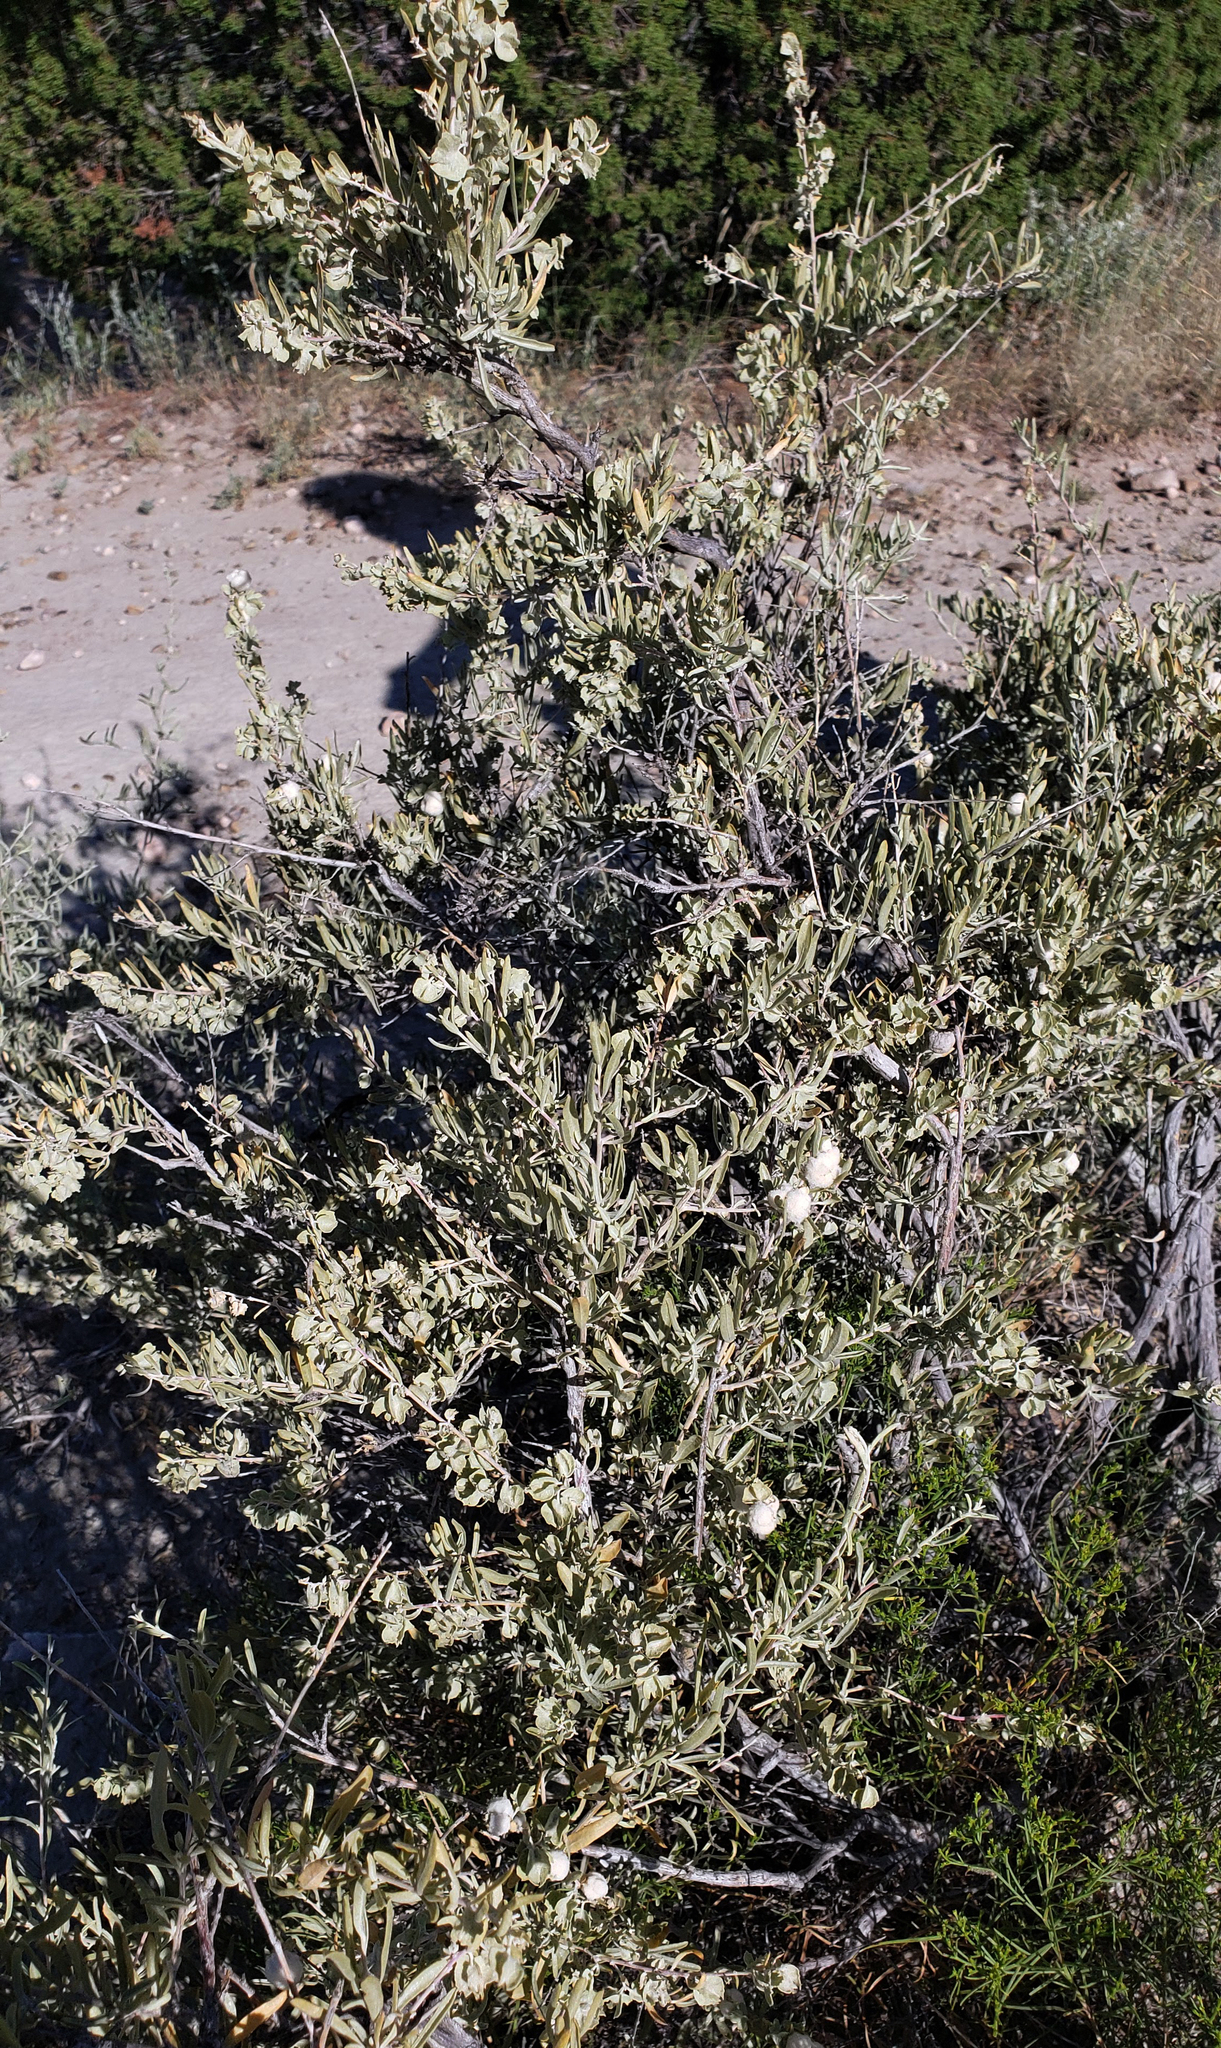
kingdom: Plantae
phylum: Tracheophyta
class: Magnoliopsida
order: Caryophyllales
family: Amaranthaceae
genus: Atriplex
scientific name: Atriplex canescens
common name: Four-wing saltbush
